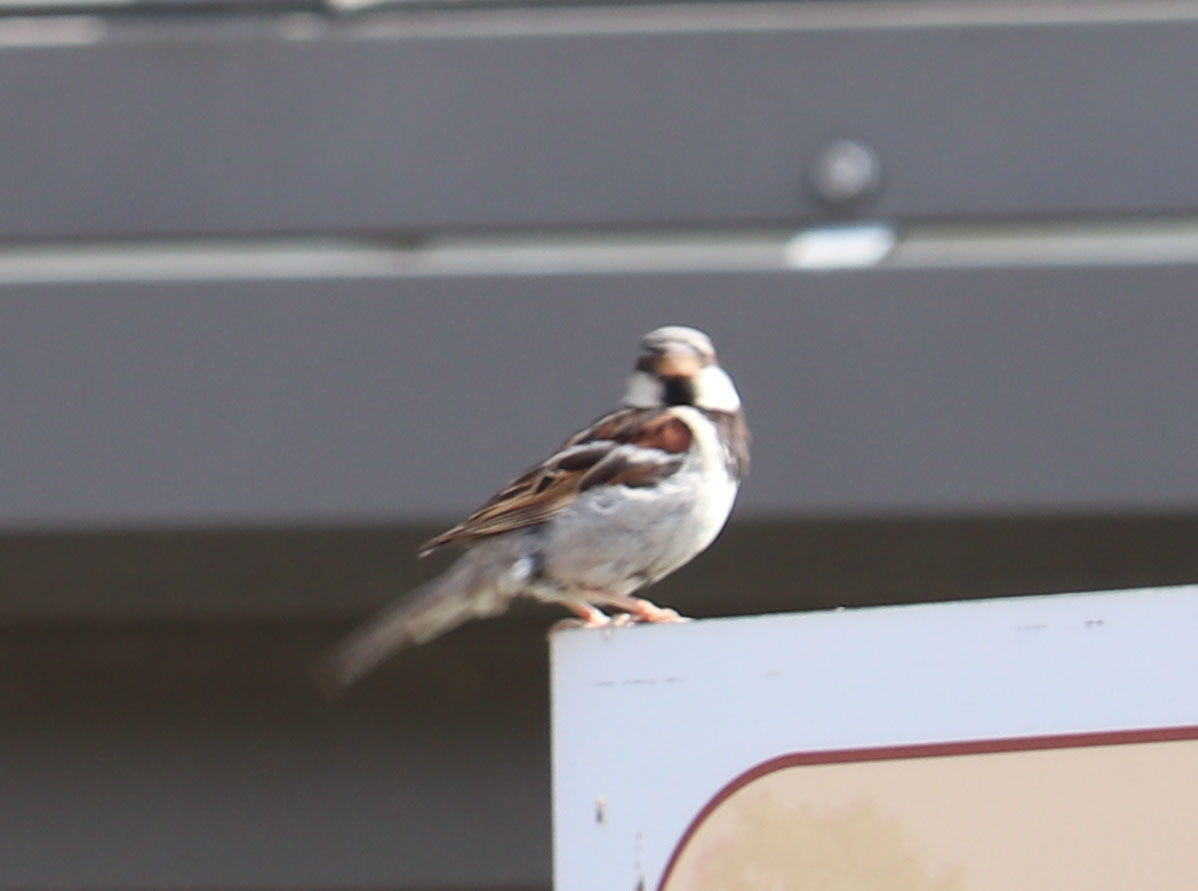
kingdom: Animalia
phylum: Chordata
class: Aves
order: Passeriformes
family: Passeridae
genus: Passer
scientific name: Passer domesticus
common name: House sparrow
